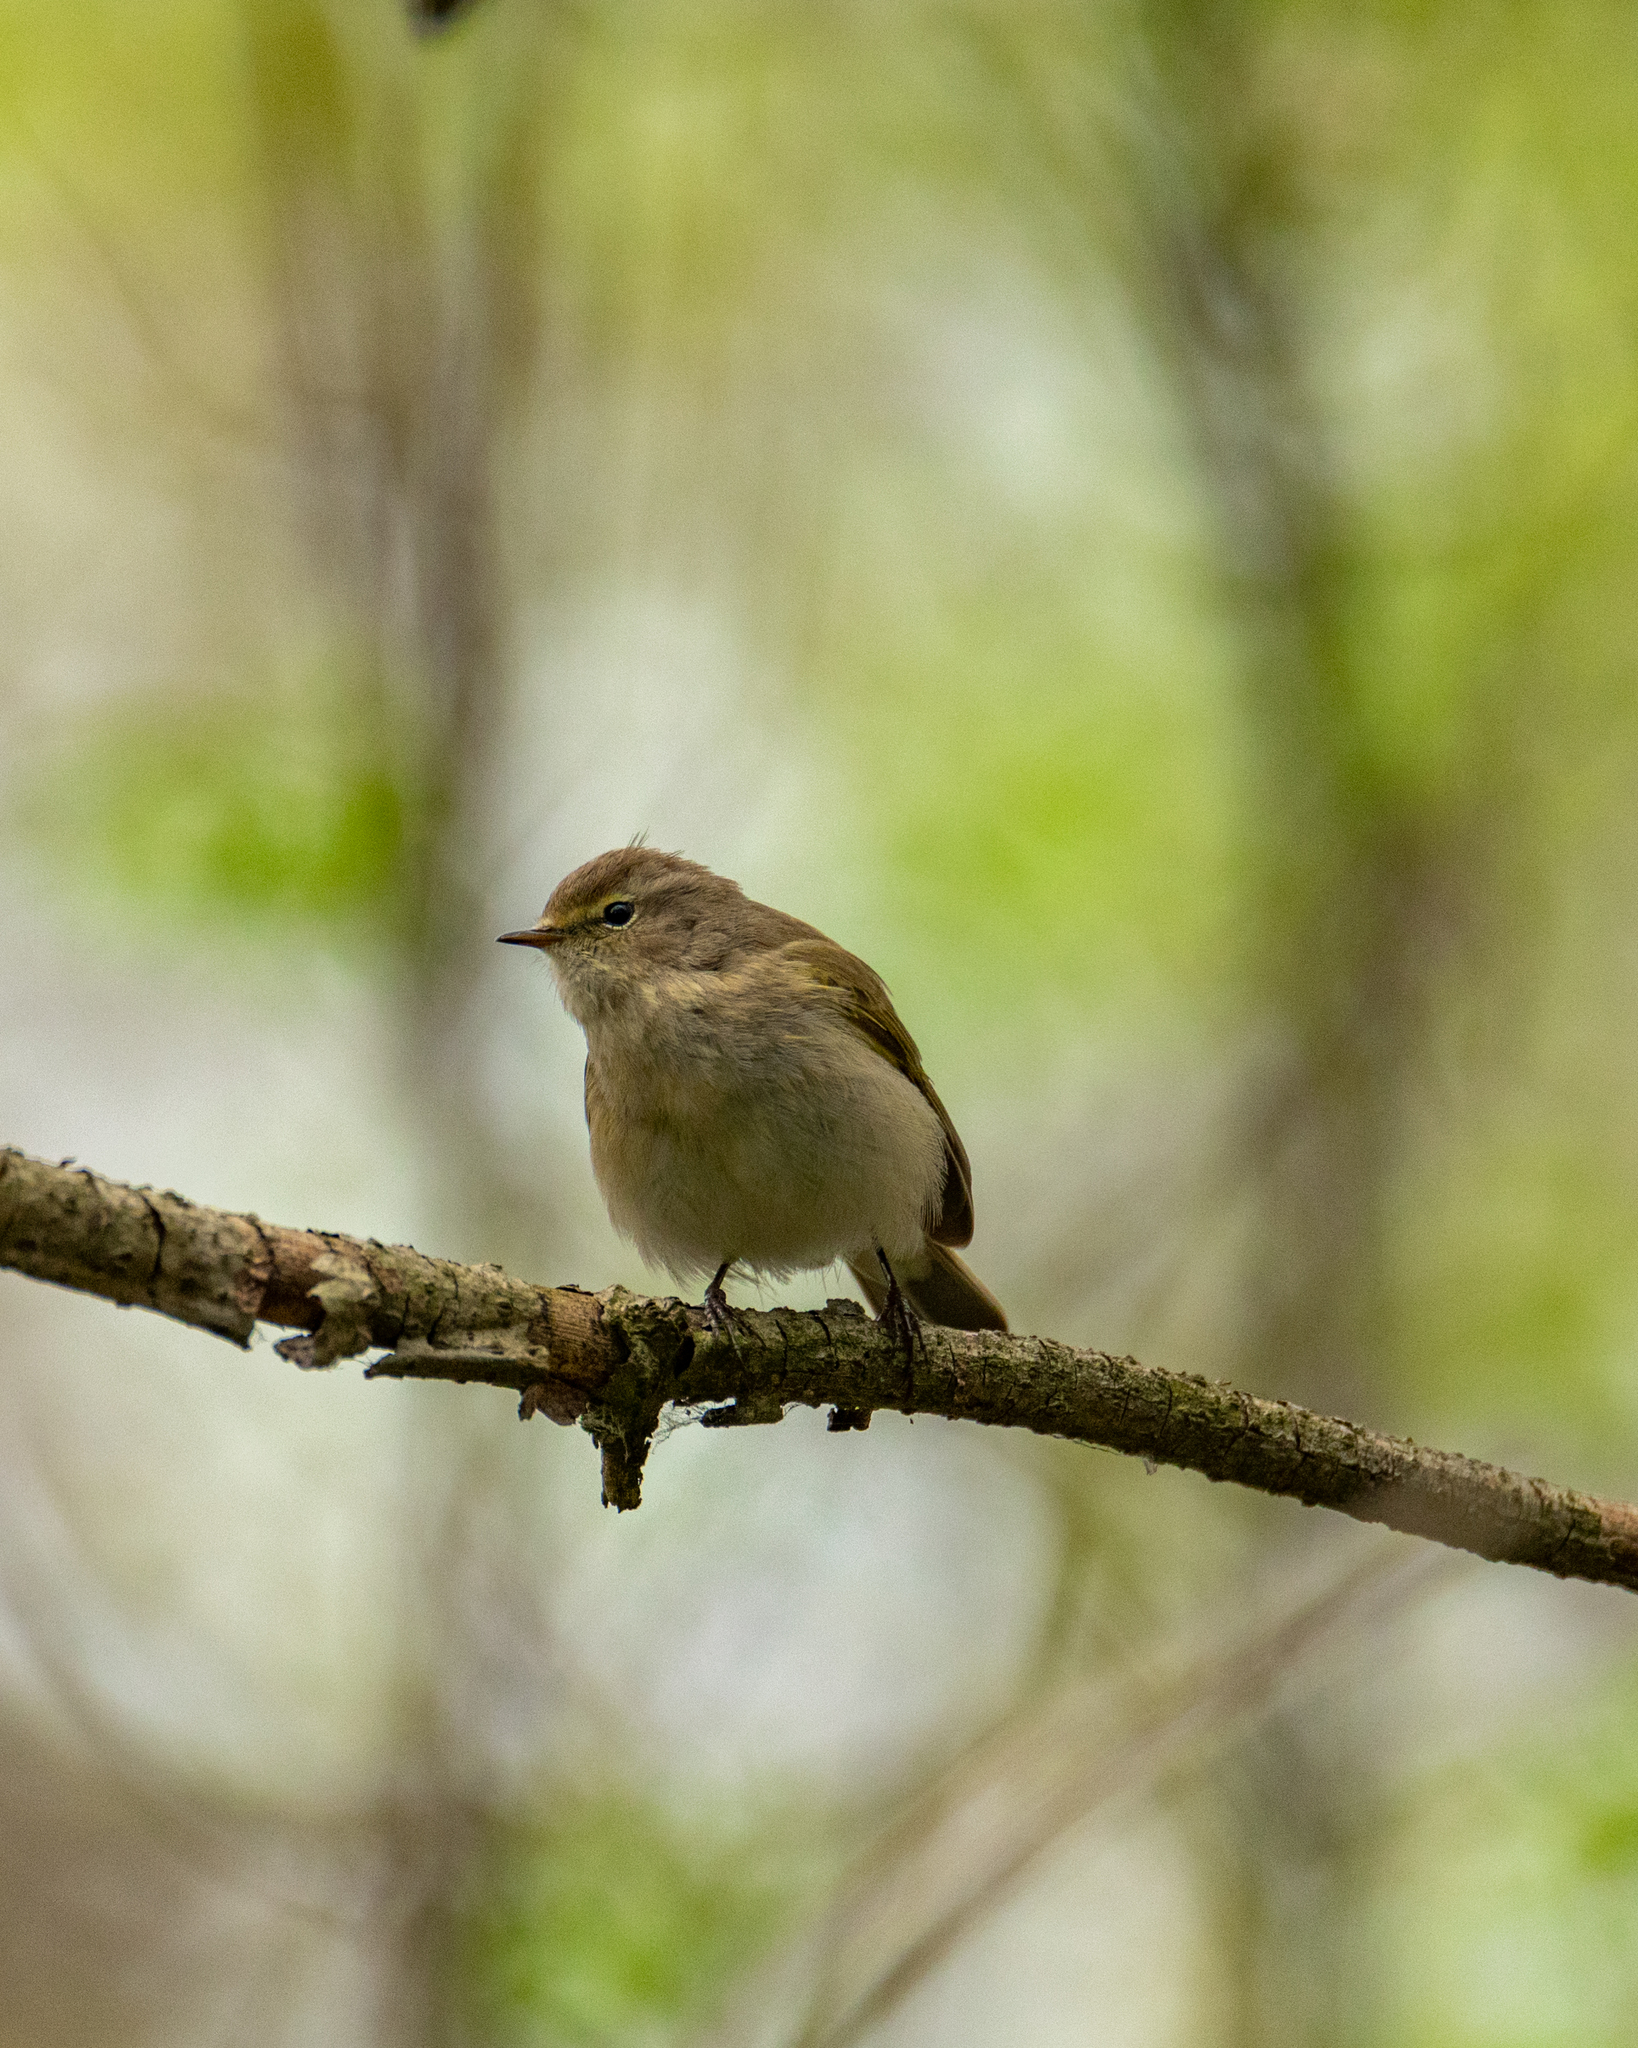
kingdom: Animalia
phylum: Chordata
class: Aves
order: Passeriformes
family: Phylloscopidae
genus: Phylloscopus
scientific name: Phylloscopus collybita
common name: Common chiffchaff
